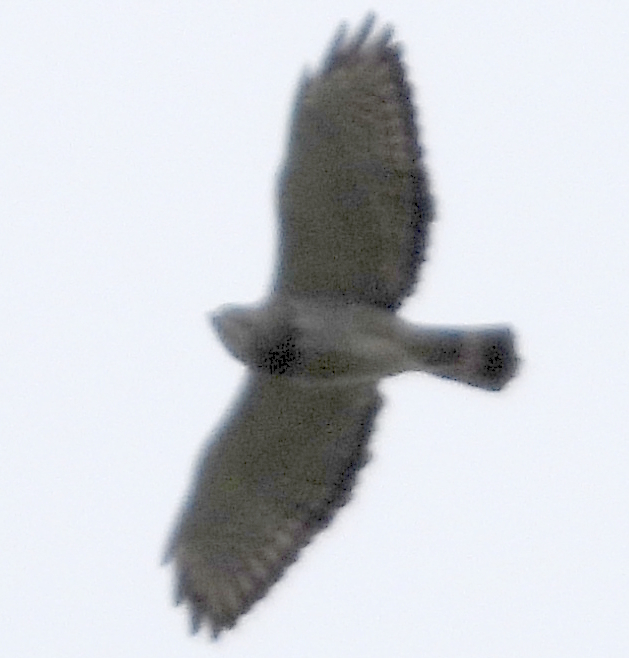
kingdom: Animalia
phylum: Chordata
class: Aves
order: Accipitriformes
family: Accipitridae
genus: Buteo
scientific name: Buteo platypterus
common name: Broad-winged hawk
